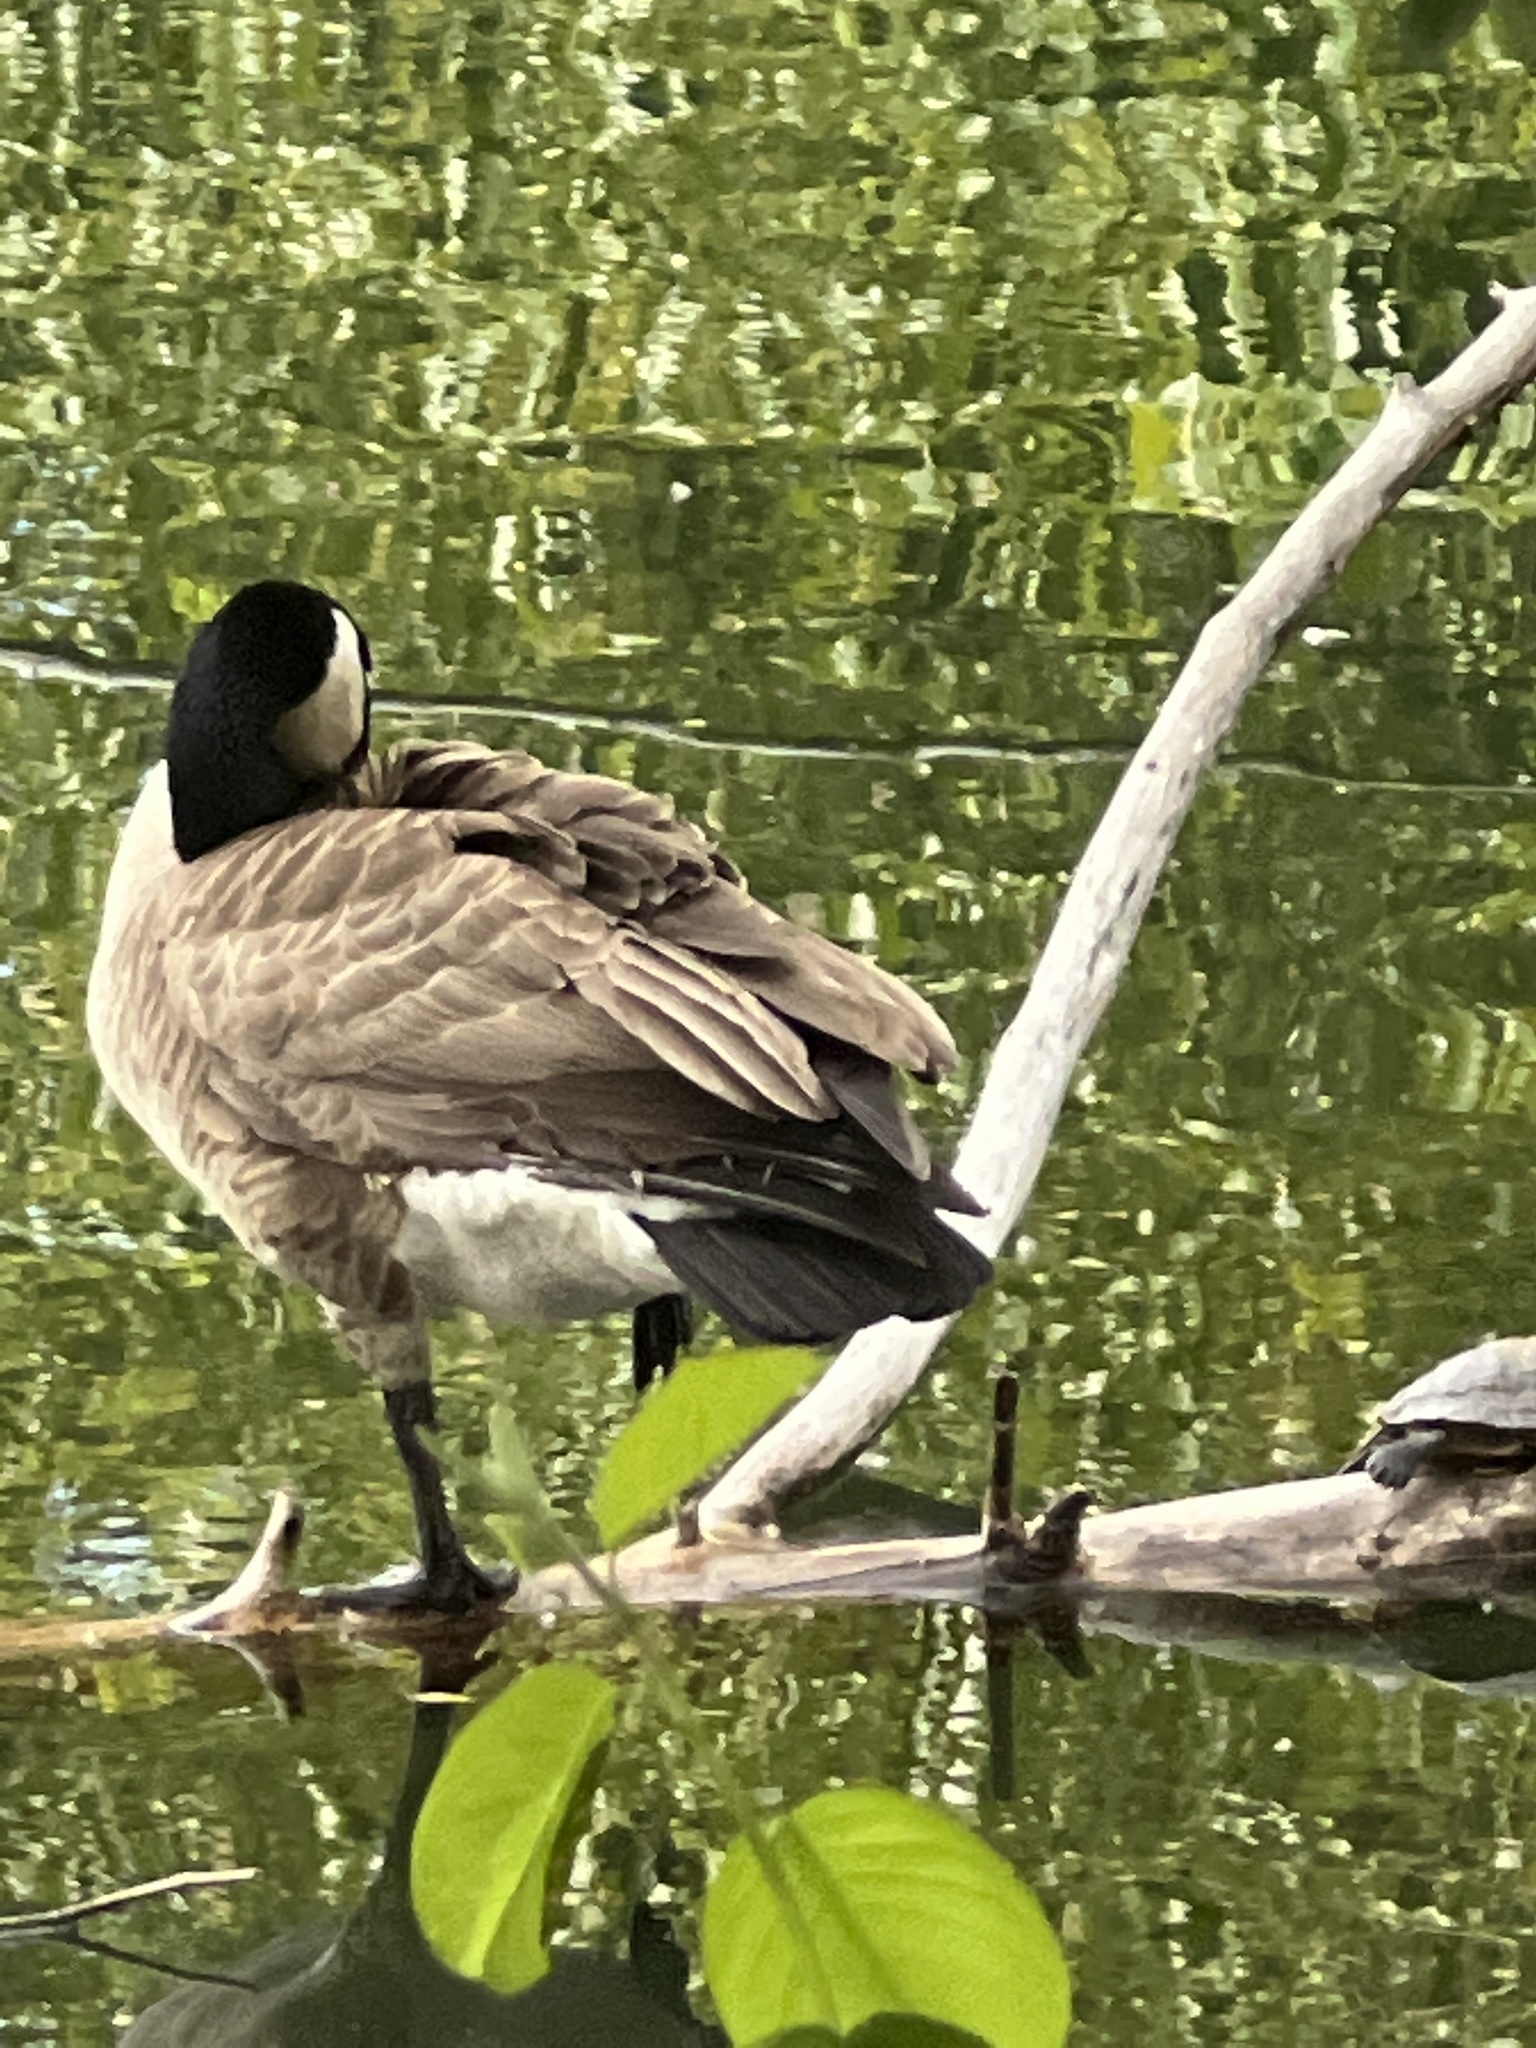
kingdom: Animalia
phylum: Chordata
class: Aves
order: Anseriformes
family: Anatidae
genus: Branta
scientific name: Branta canadensis
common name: Canada goose
